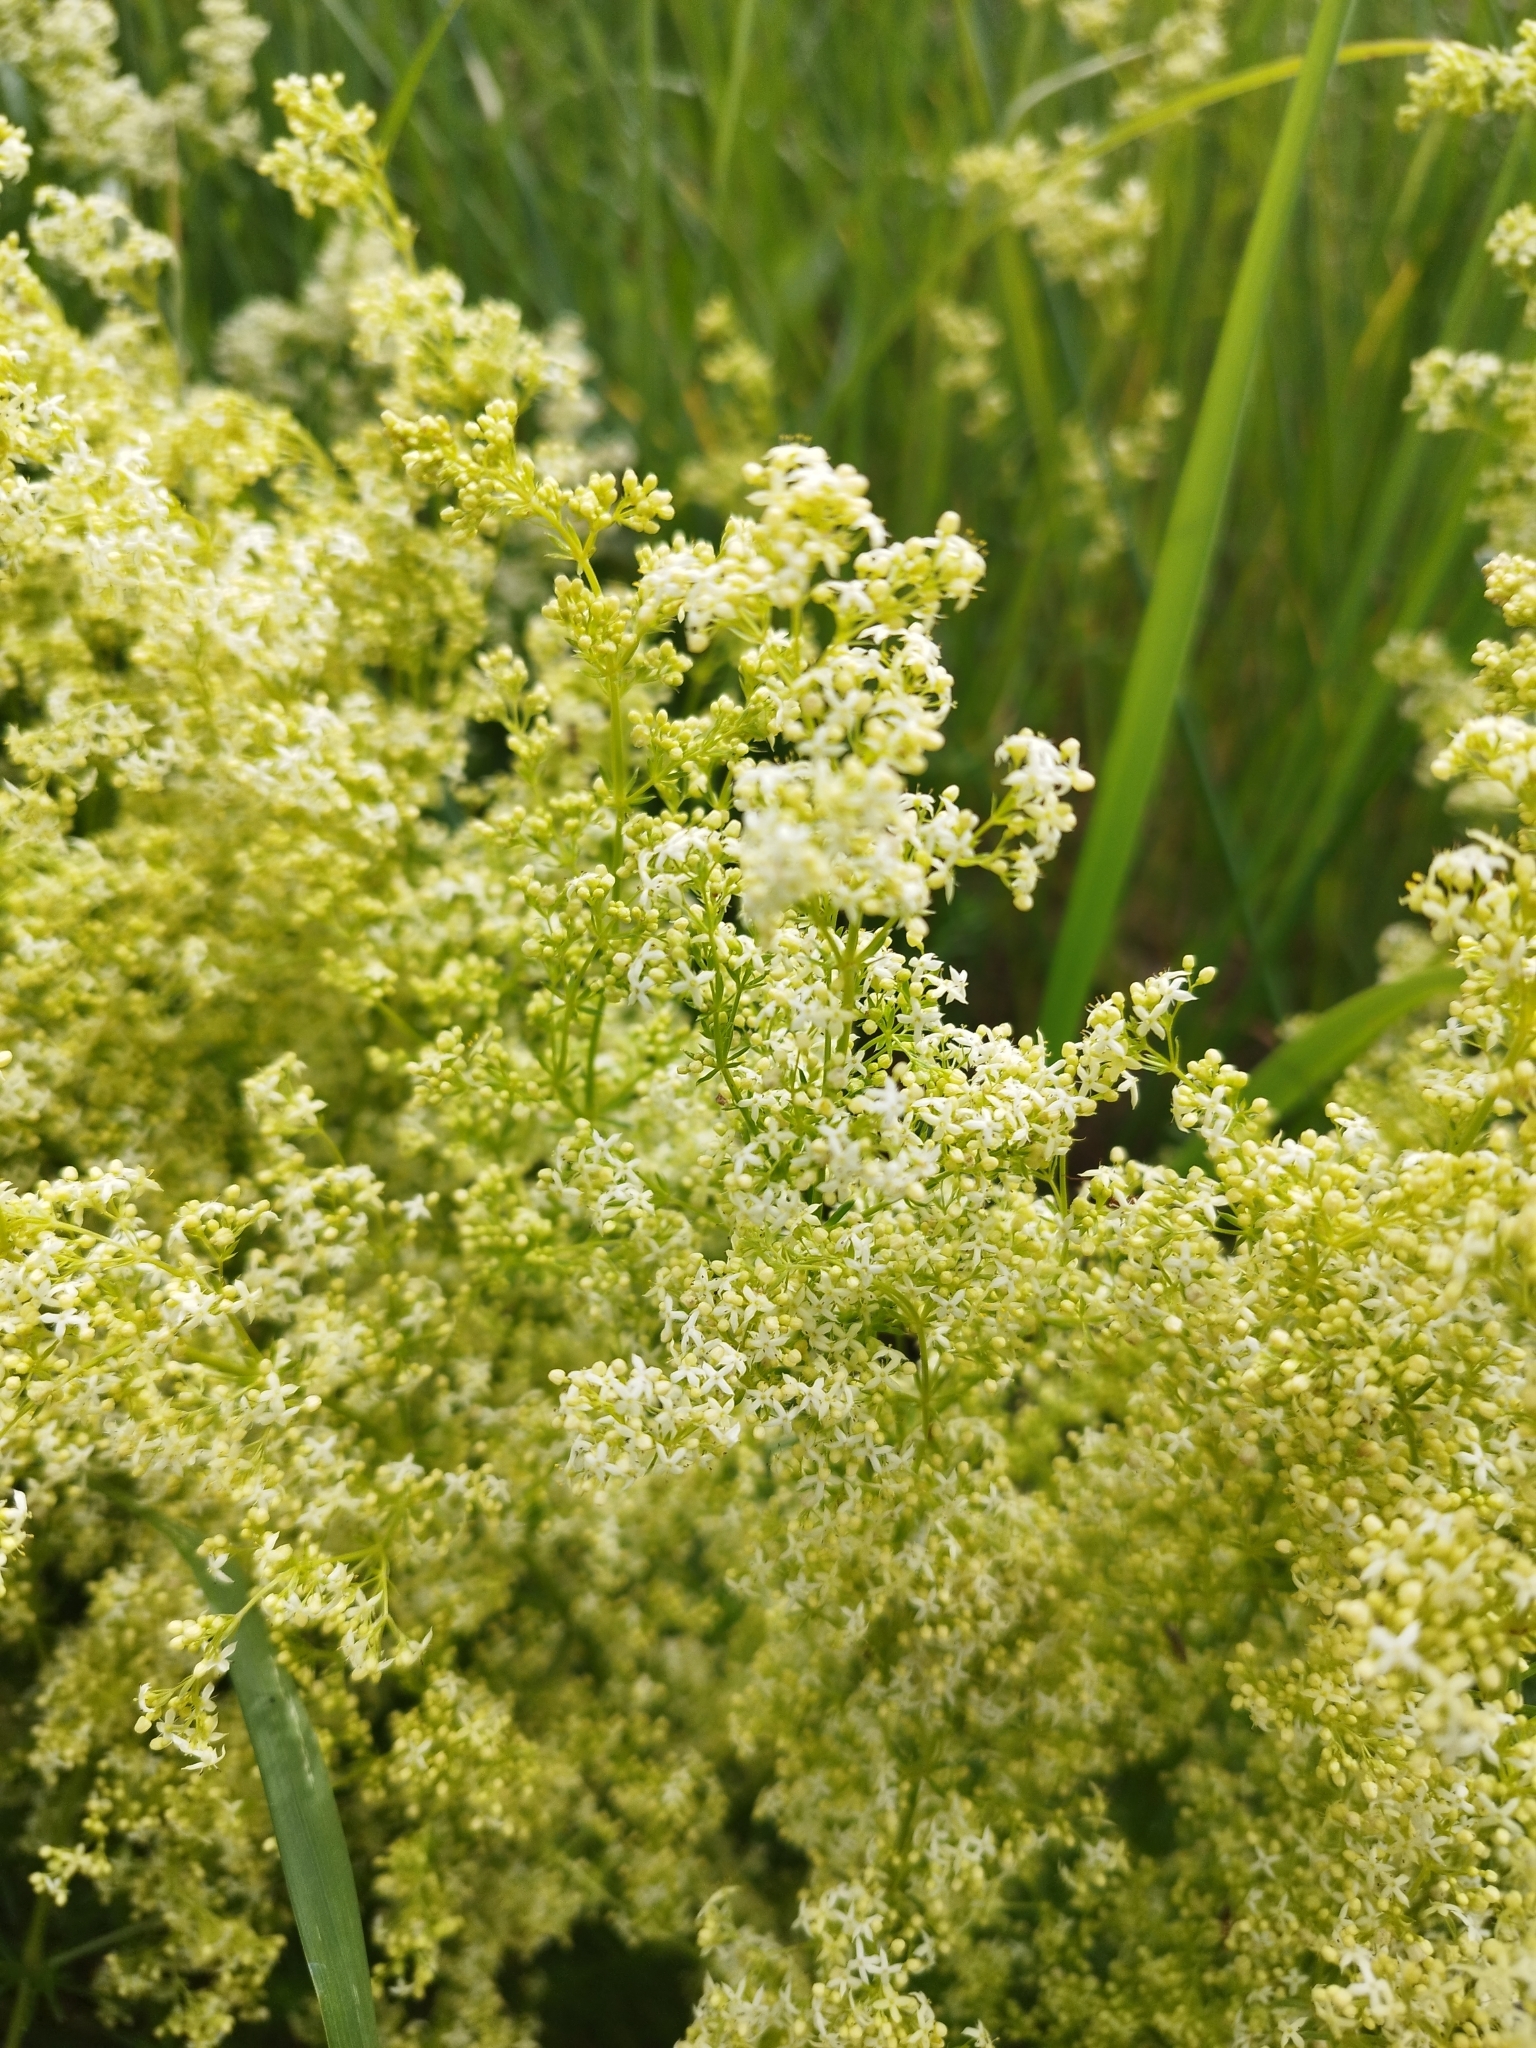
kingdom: Plantae
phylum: Tracheophyta
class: Magnoliopsida
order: Gentianales
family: Rubiaceae
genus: Galium
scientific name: Galium mollugo
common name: Hedge bedstraw
